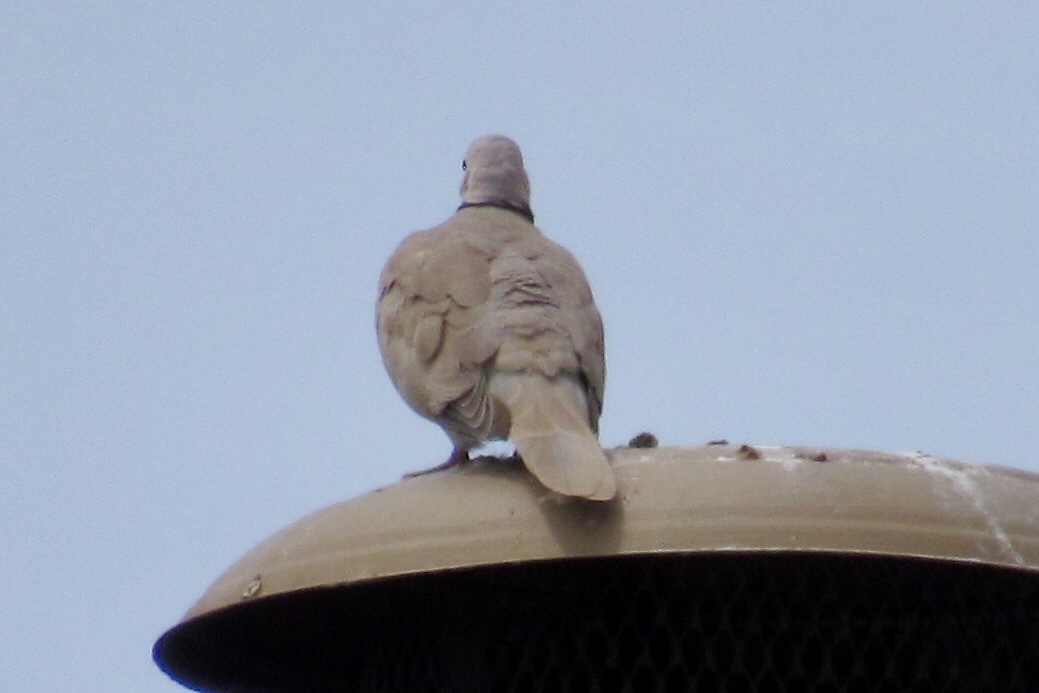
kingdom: Animalia
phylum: Chordata
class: Aves
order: Columbiformes
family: Columbidae
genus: Streptopelia
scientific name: Streptopelia decaocto
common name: Eurasian collared dove
